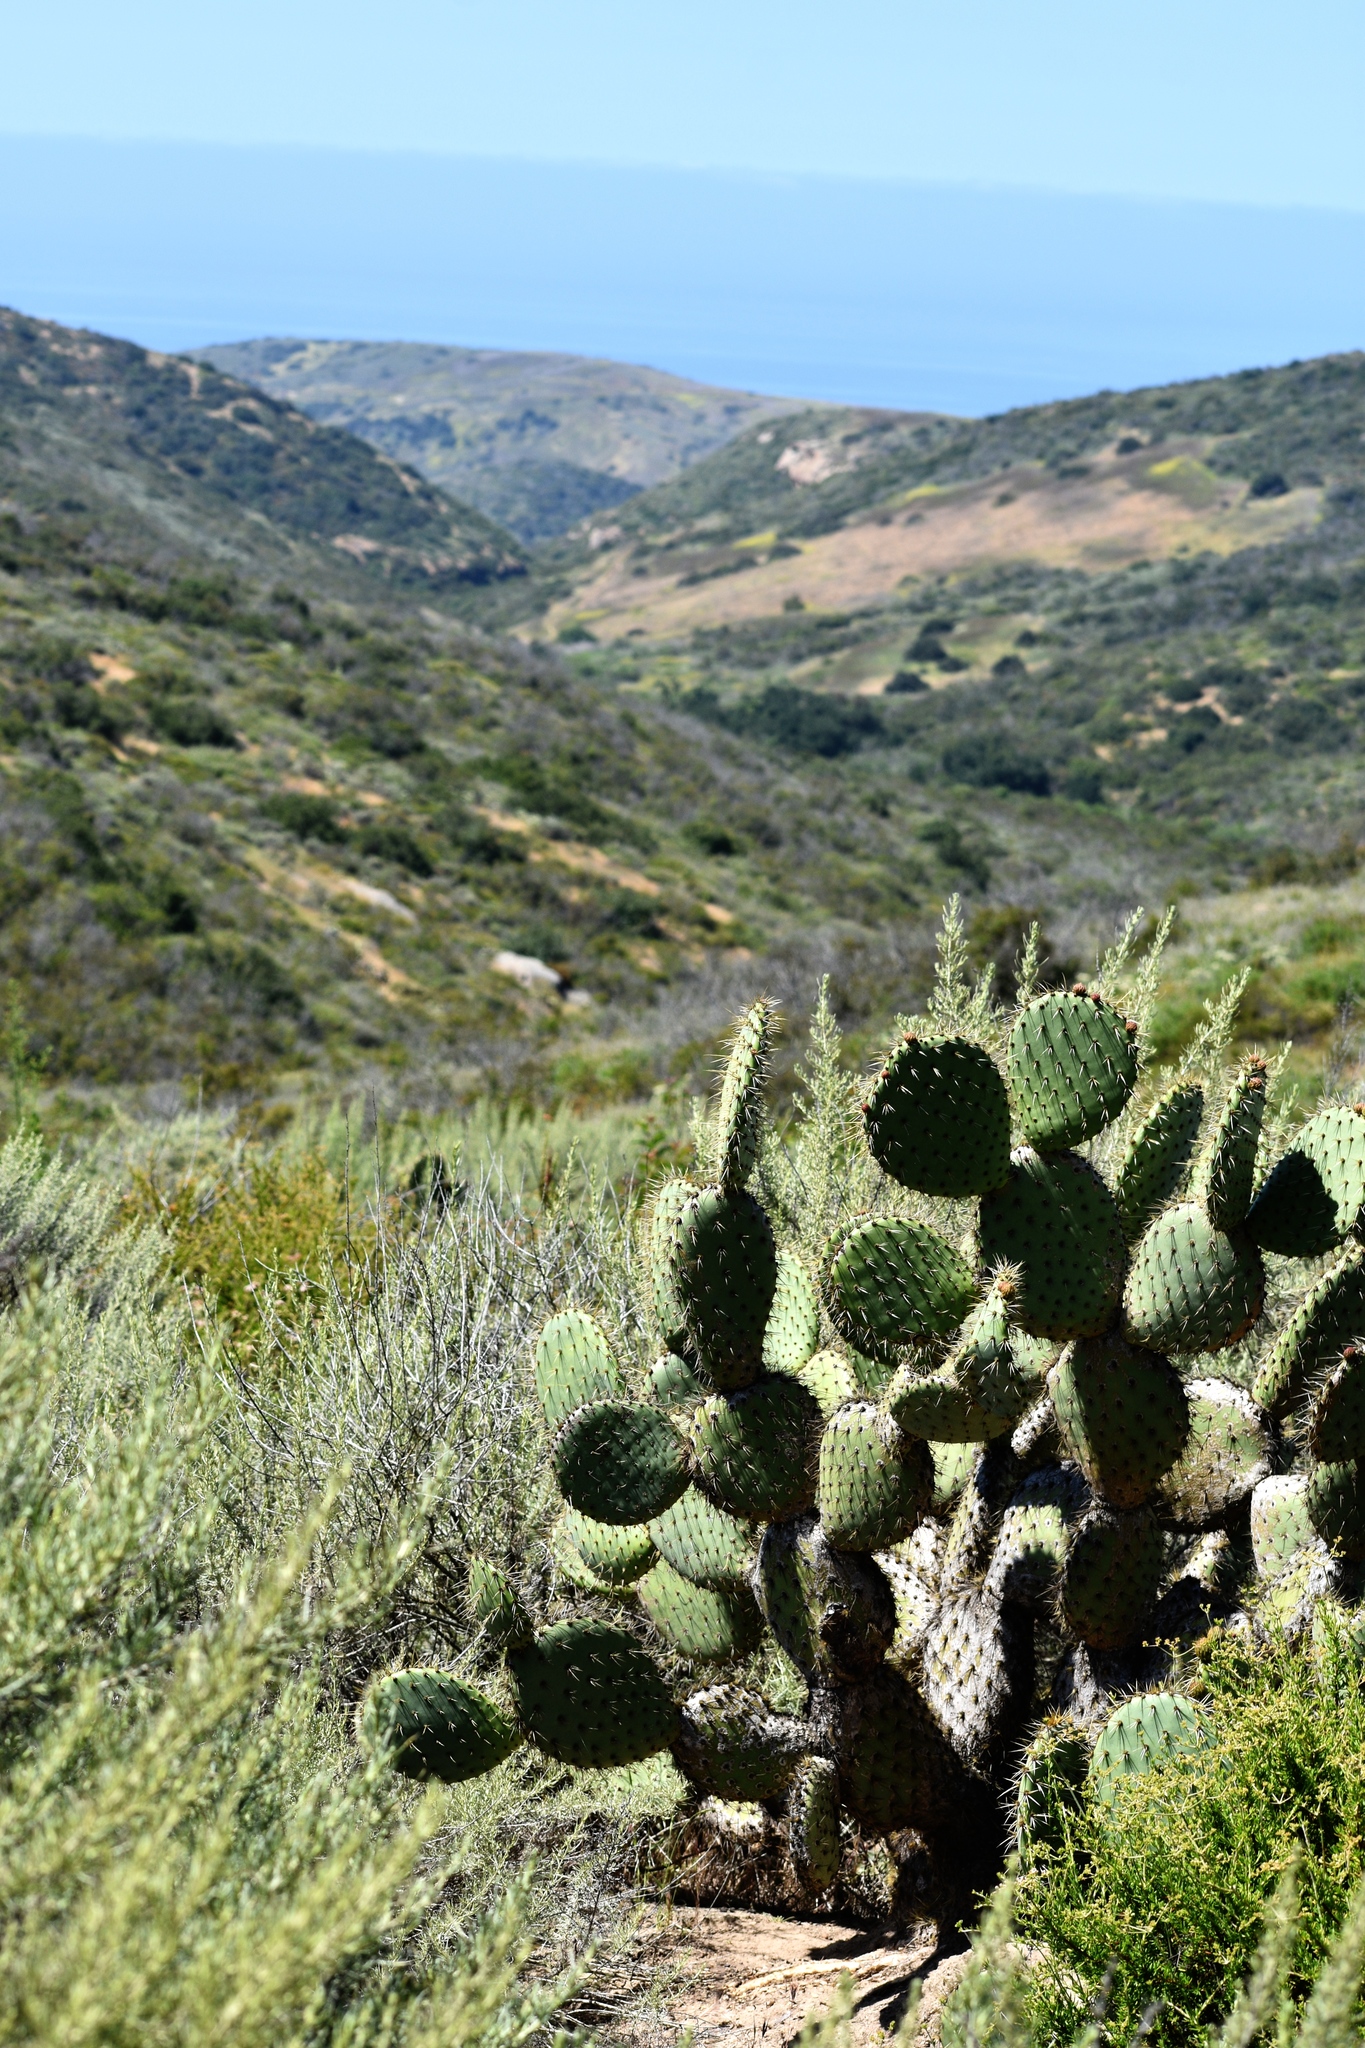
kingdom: Plantae
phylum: Tracheophyta
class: Magnoliopsida
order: Caryophyllales
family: Cactaceae
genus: Opuntia
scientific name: Opuntia oricola
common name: Chaparral prickly-pear
